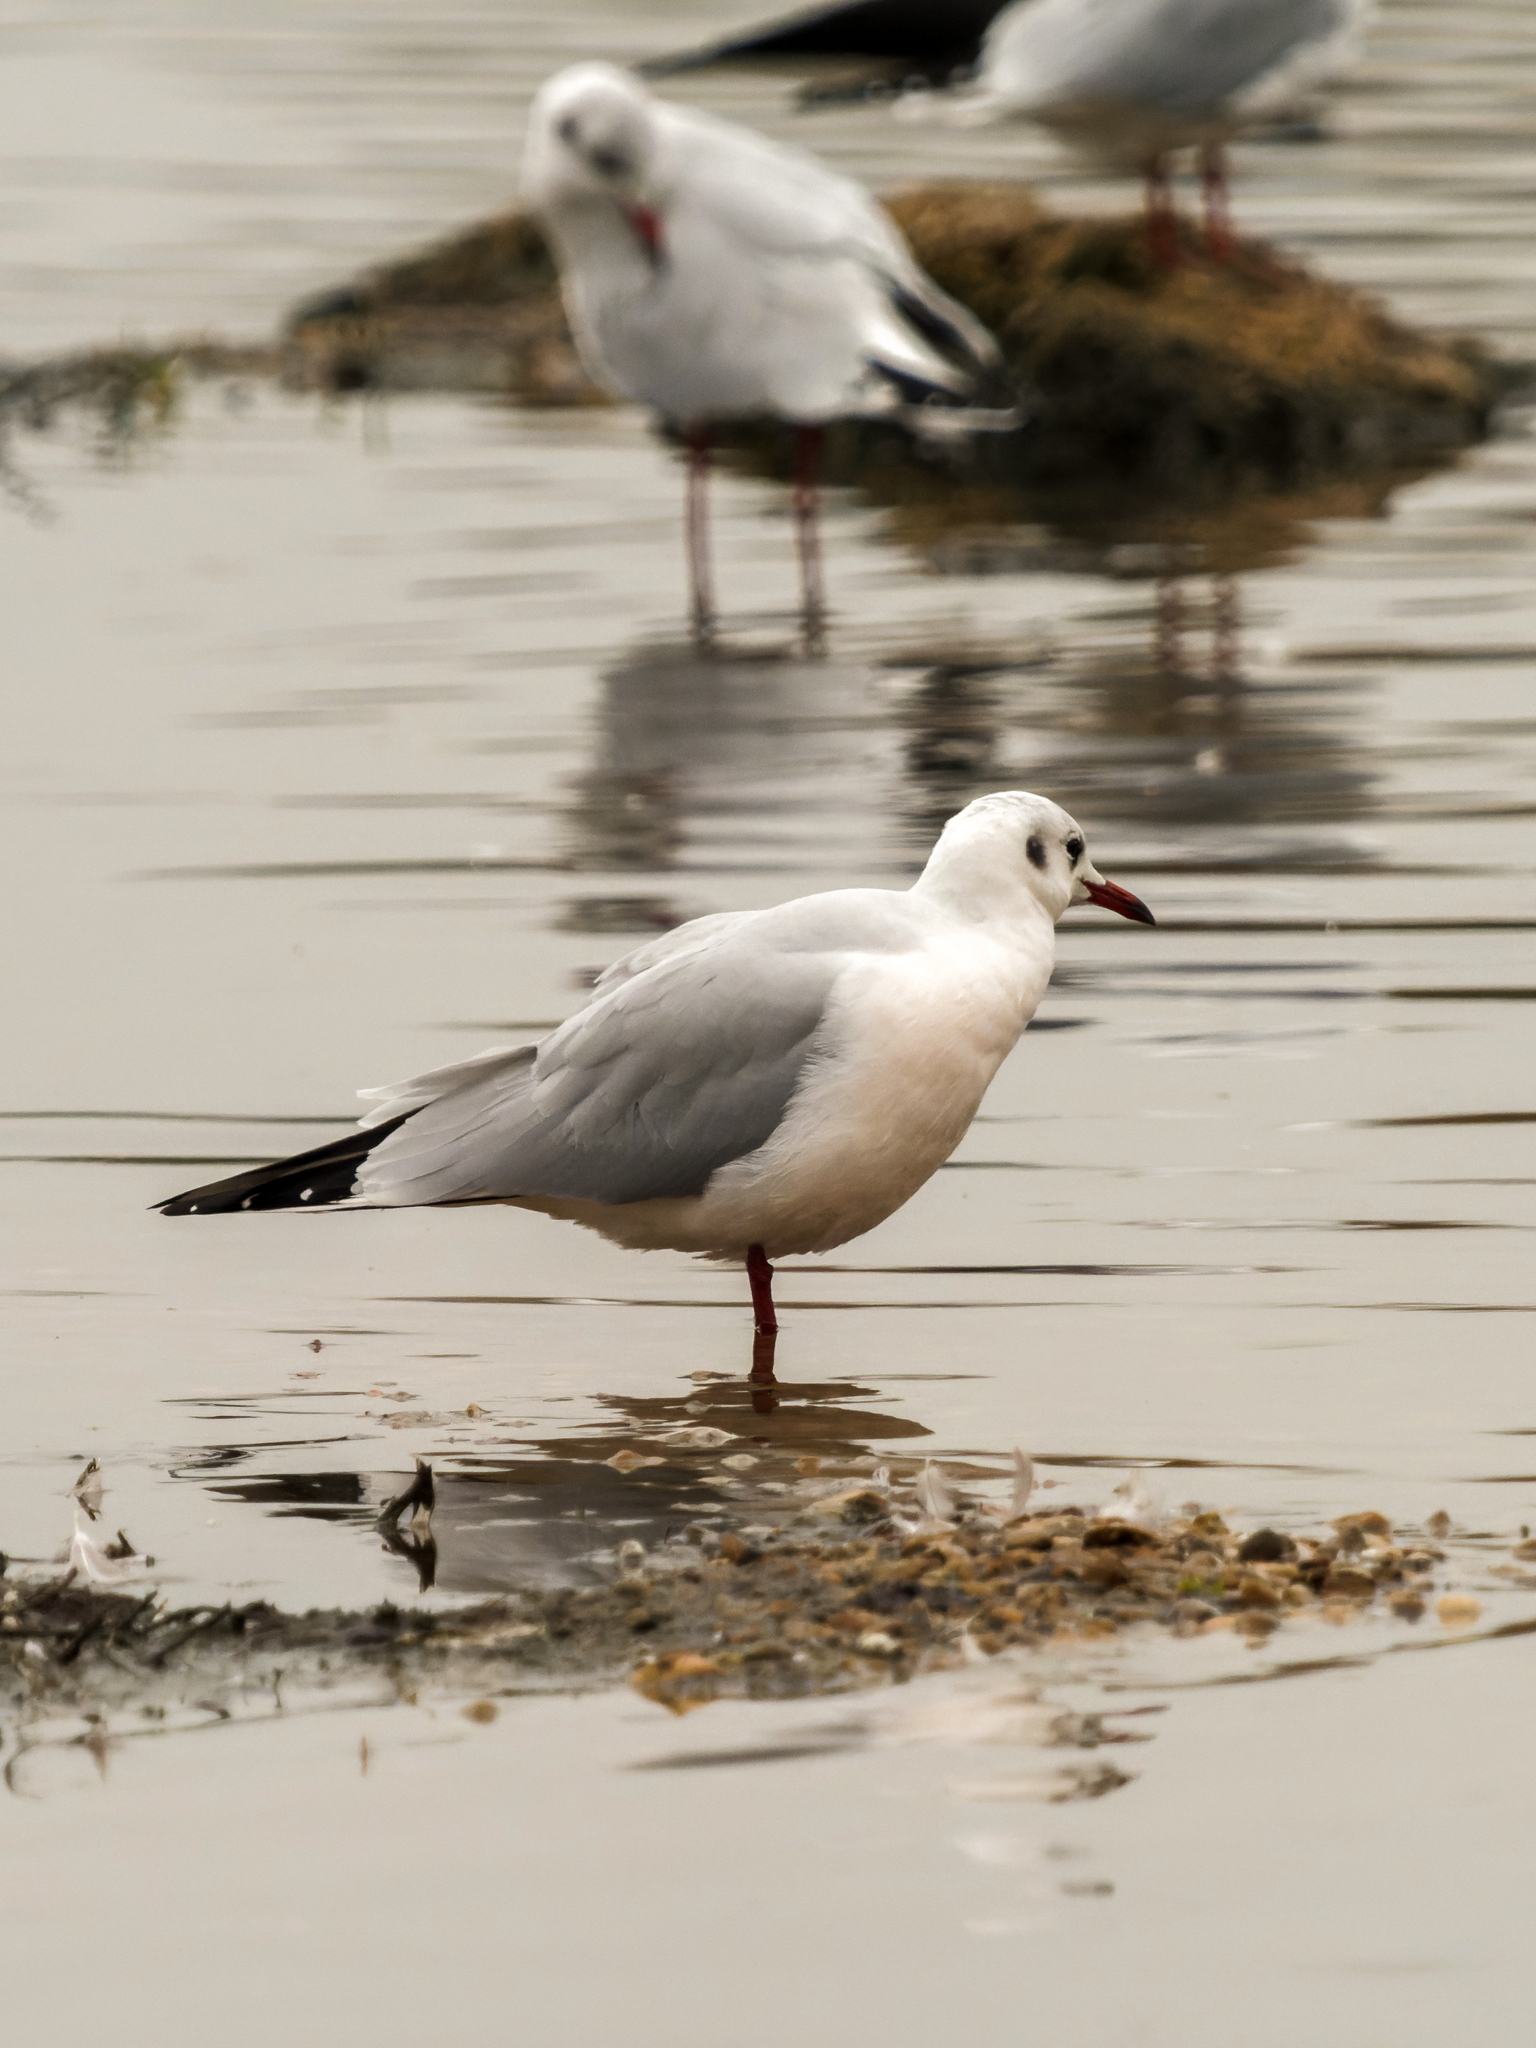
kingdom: Animalia
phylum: Chordata
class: Aves
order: Charadriiformes
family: Laridae
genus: Chroicocephalus
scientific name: Chroicocephalus ridibundus
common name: Black-headed gull
